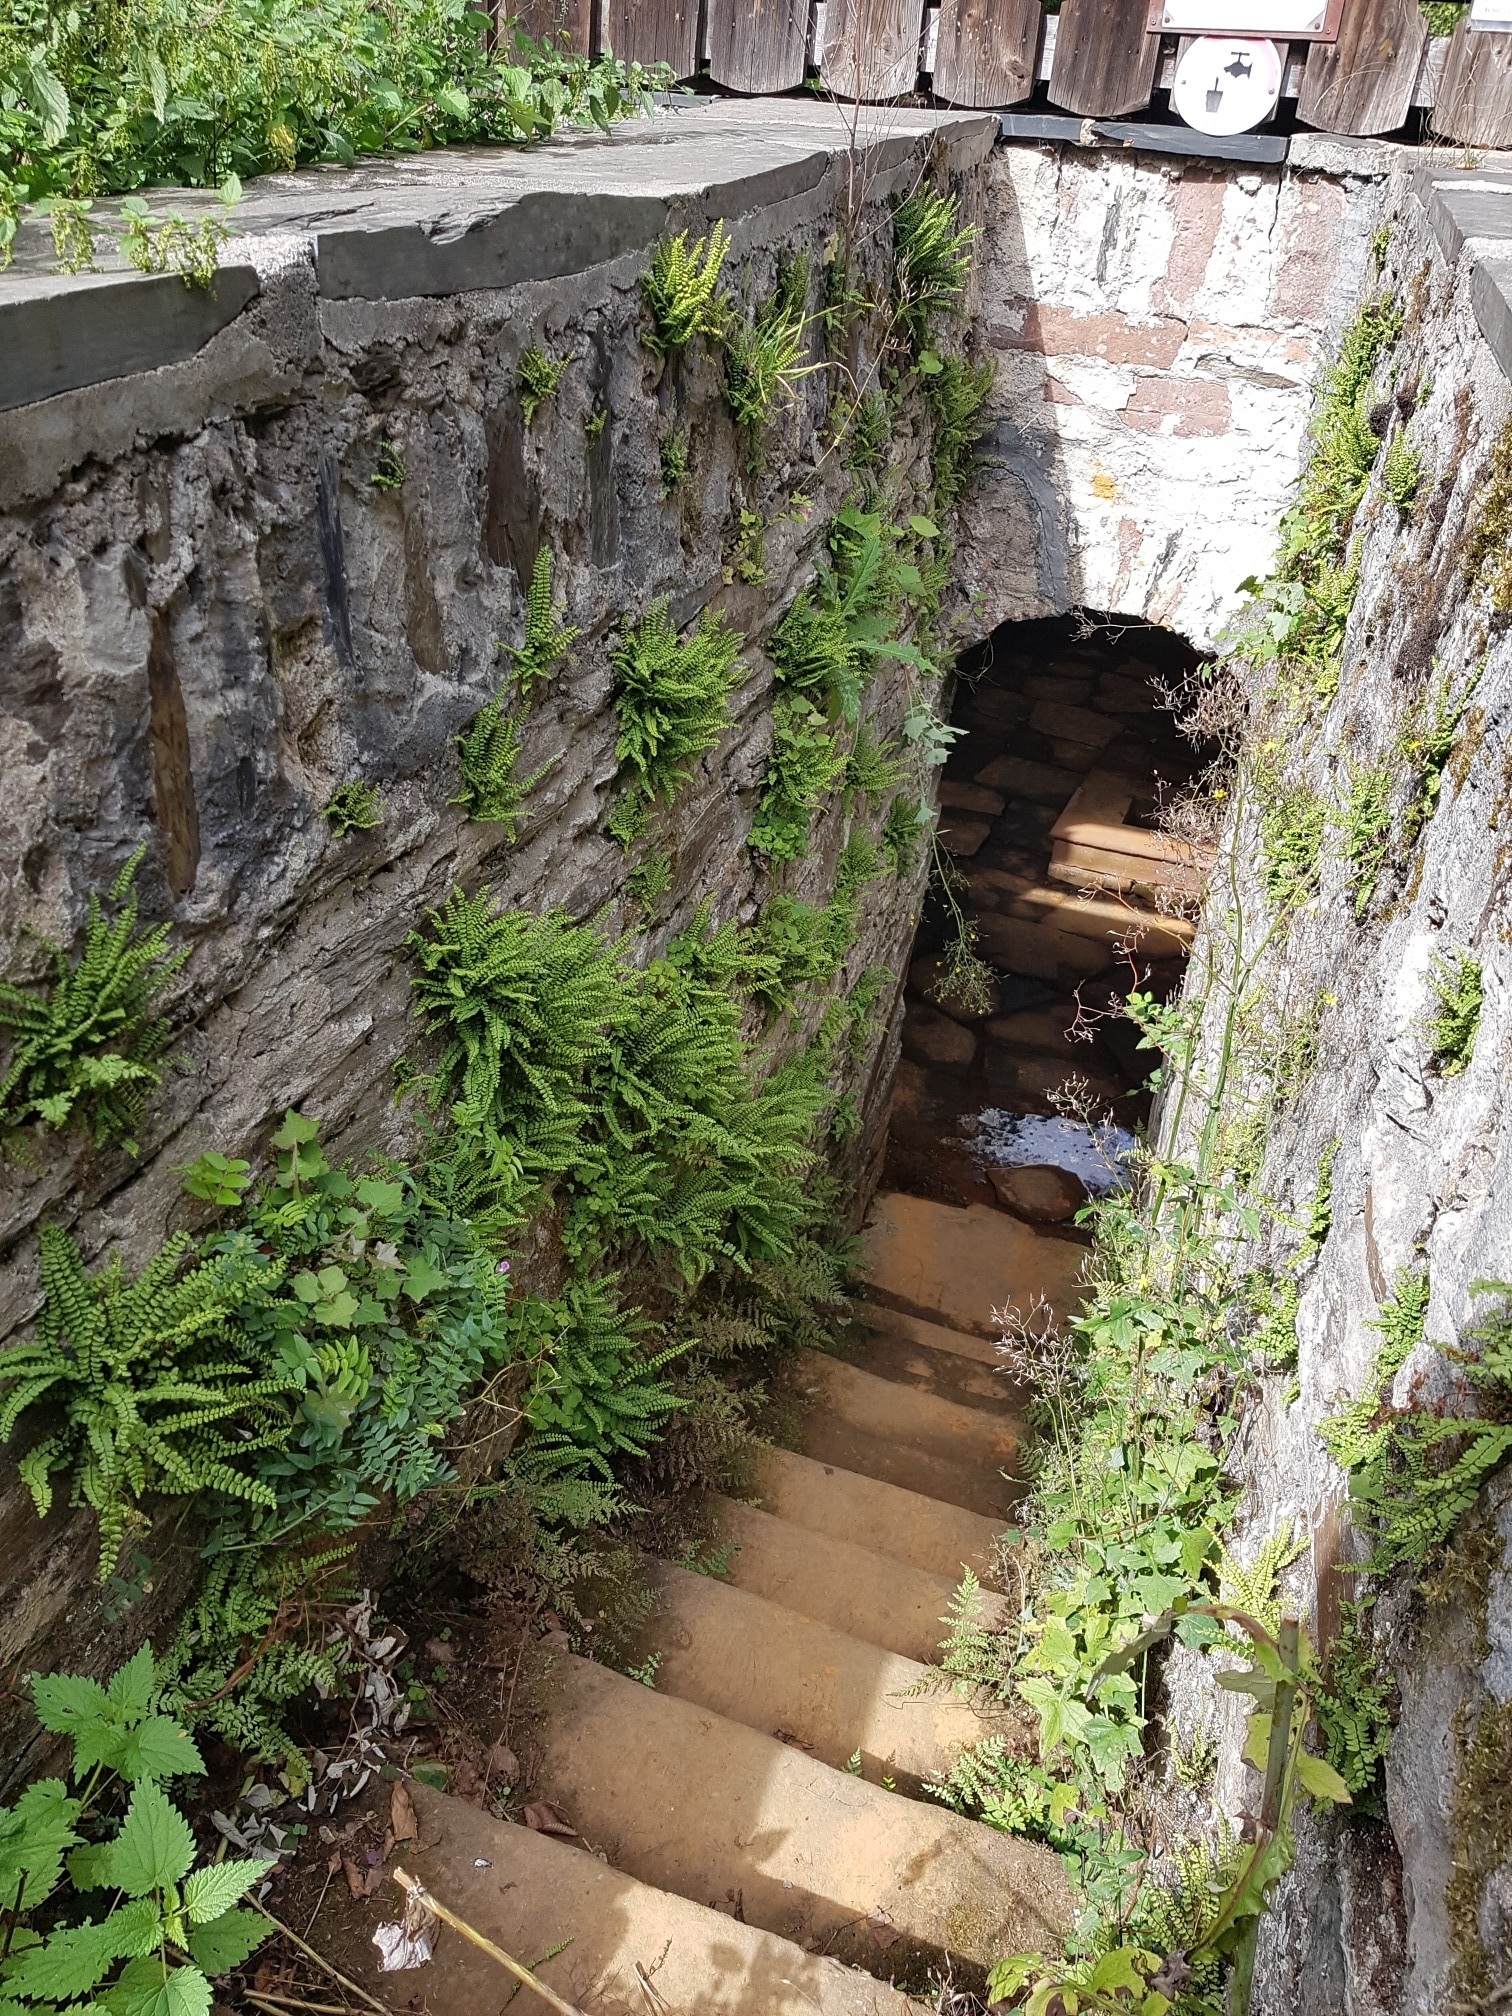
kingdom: Plantae
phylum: Tracheophyta
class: Polypodiopsida
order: Polypodiales
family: Aspleniaceae
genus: Asplenium
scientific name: Asplenium trichomanes
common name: Maidenhair spleenwort
